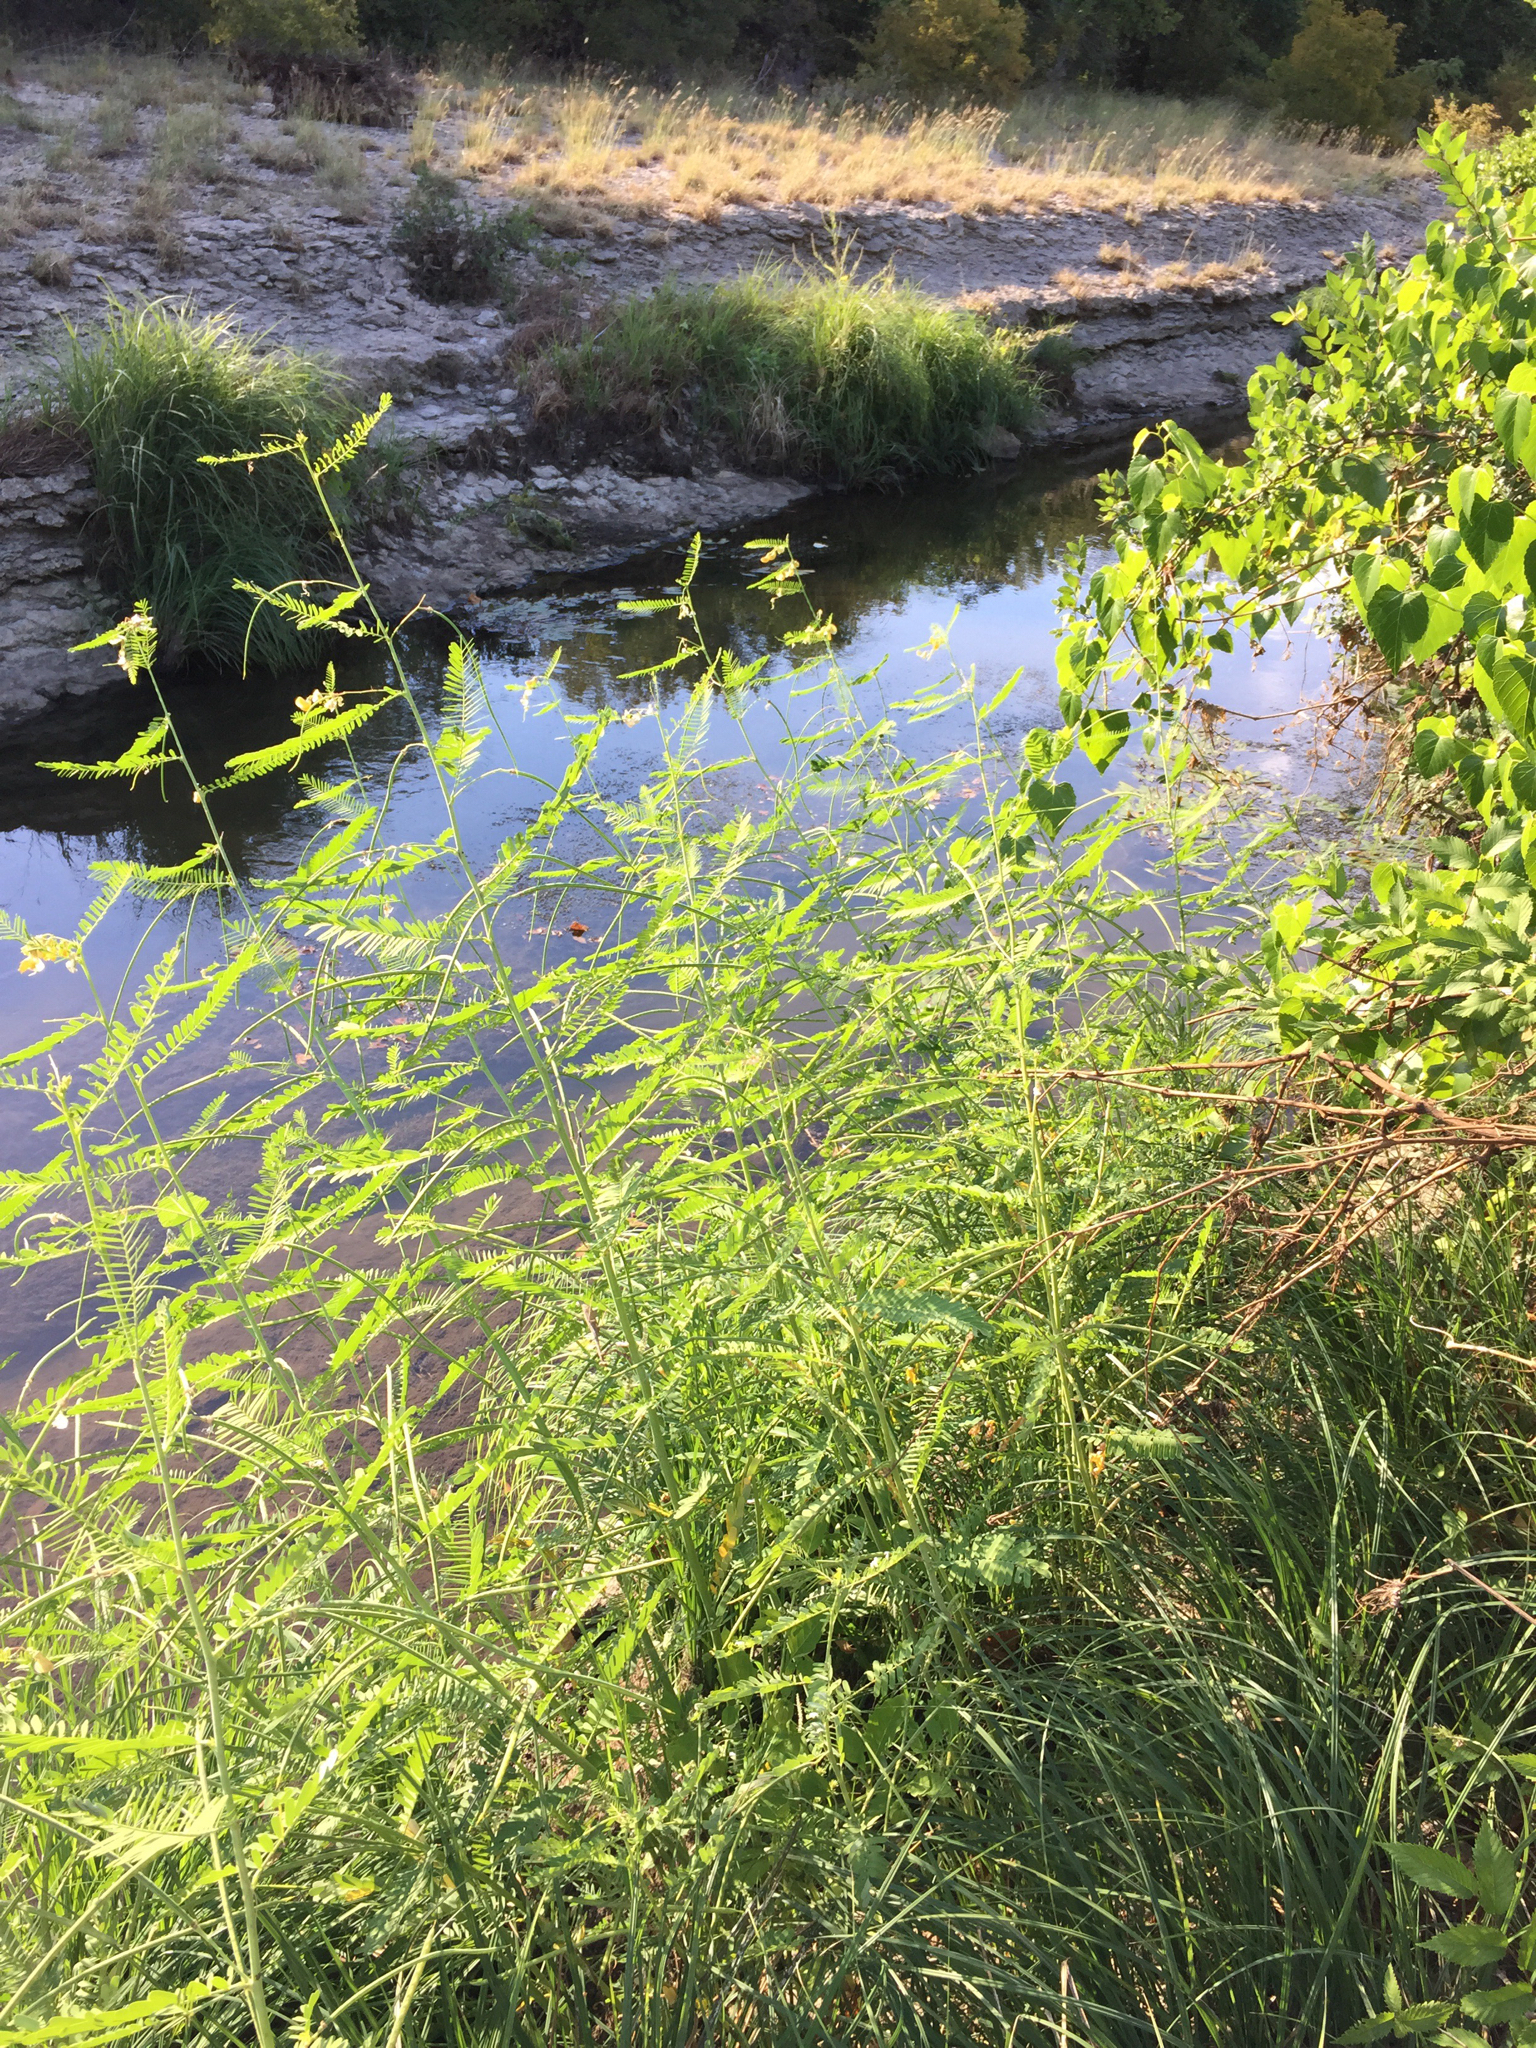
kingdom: Plantae
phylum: Tracheophyta
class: Magnoliopsida
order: Fabales
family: Fabaceae
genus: Sesbania
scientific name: Sesbania herbacea
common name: Bigpod sesbania
